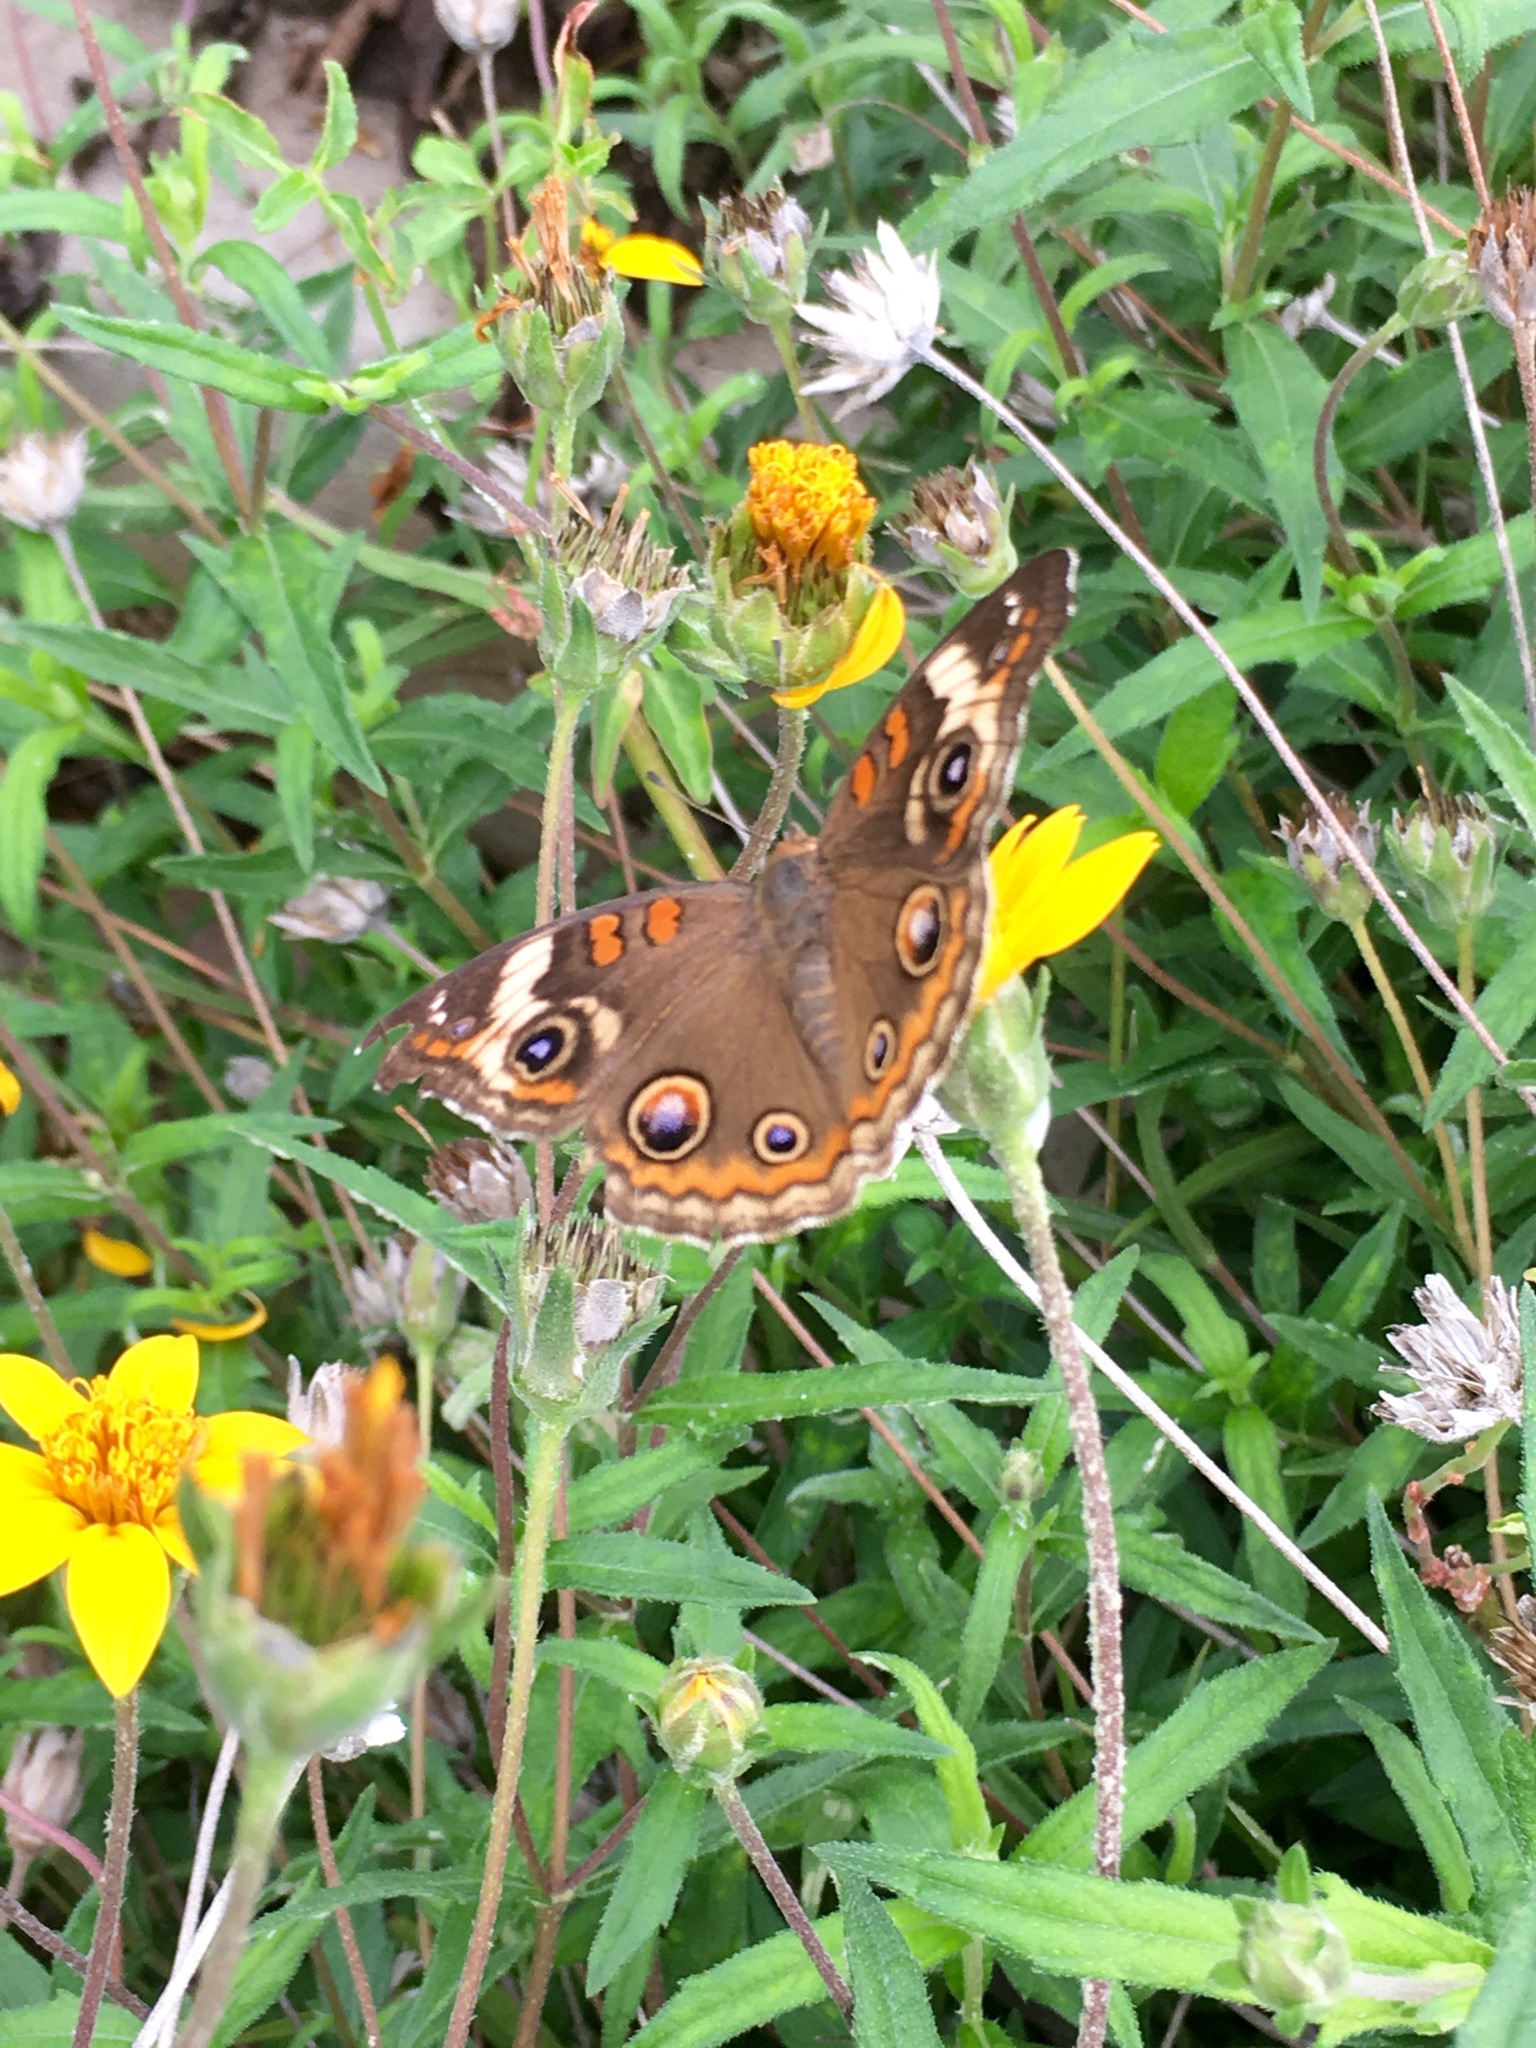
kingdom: Animalia
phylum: Arthropoda
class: Insecta
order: Lepidoptera
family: Nymphalidae
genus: Junonia
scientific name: Junonia coenia
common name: Common buckeye
